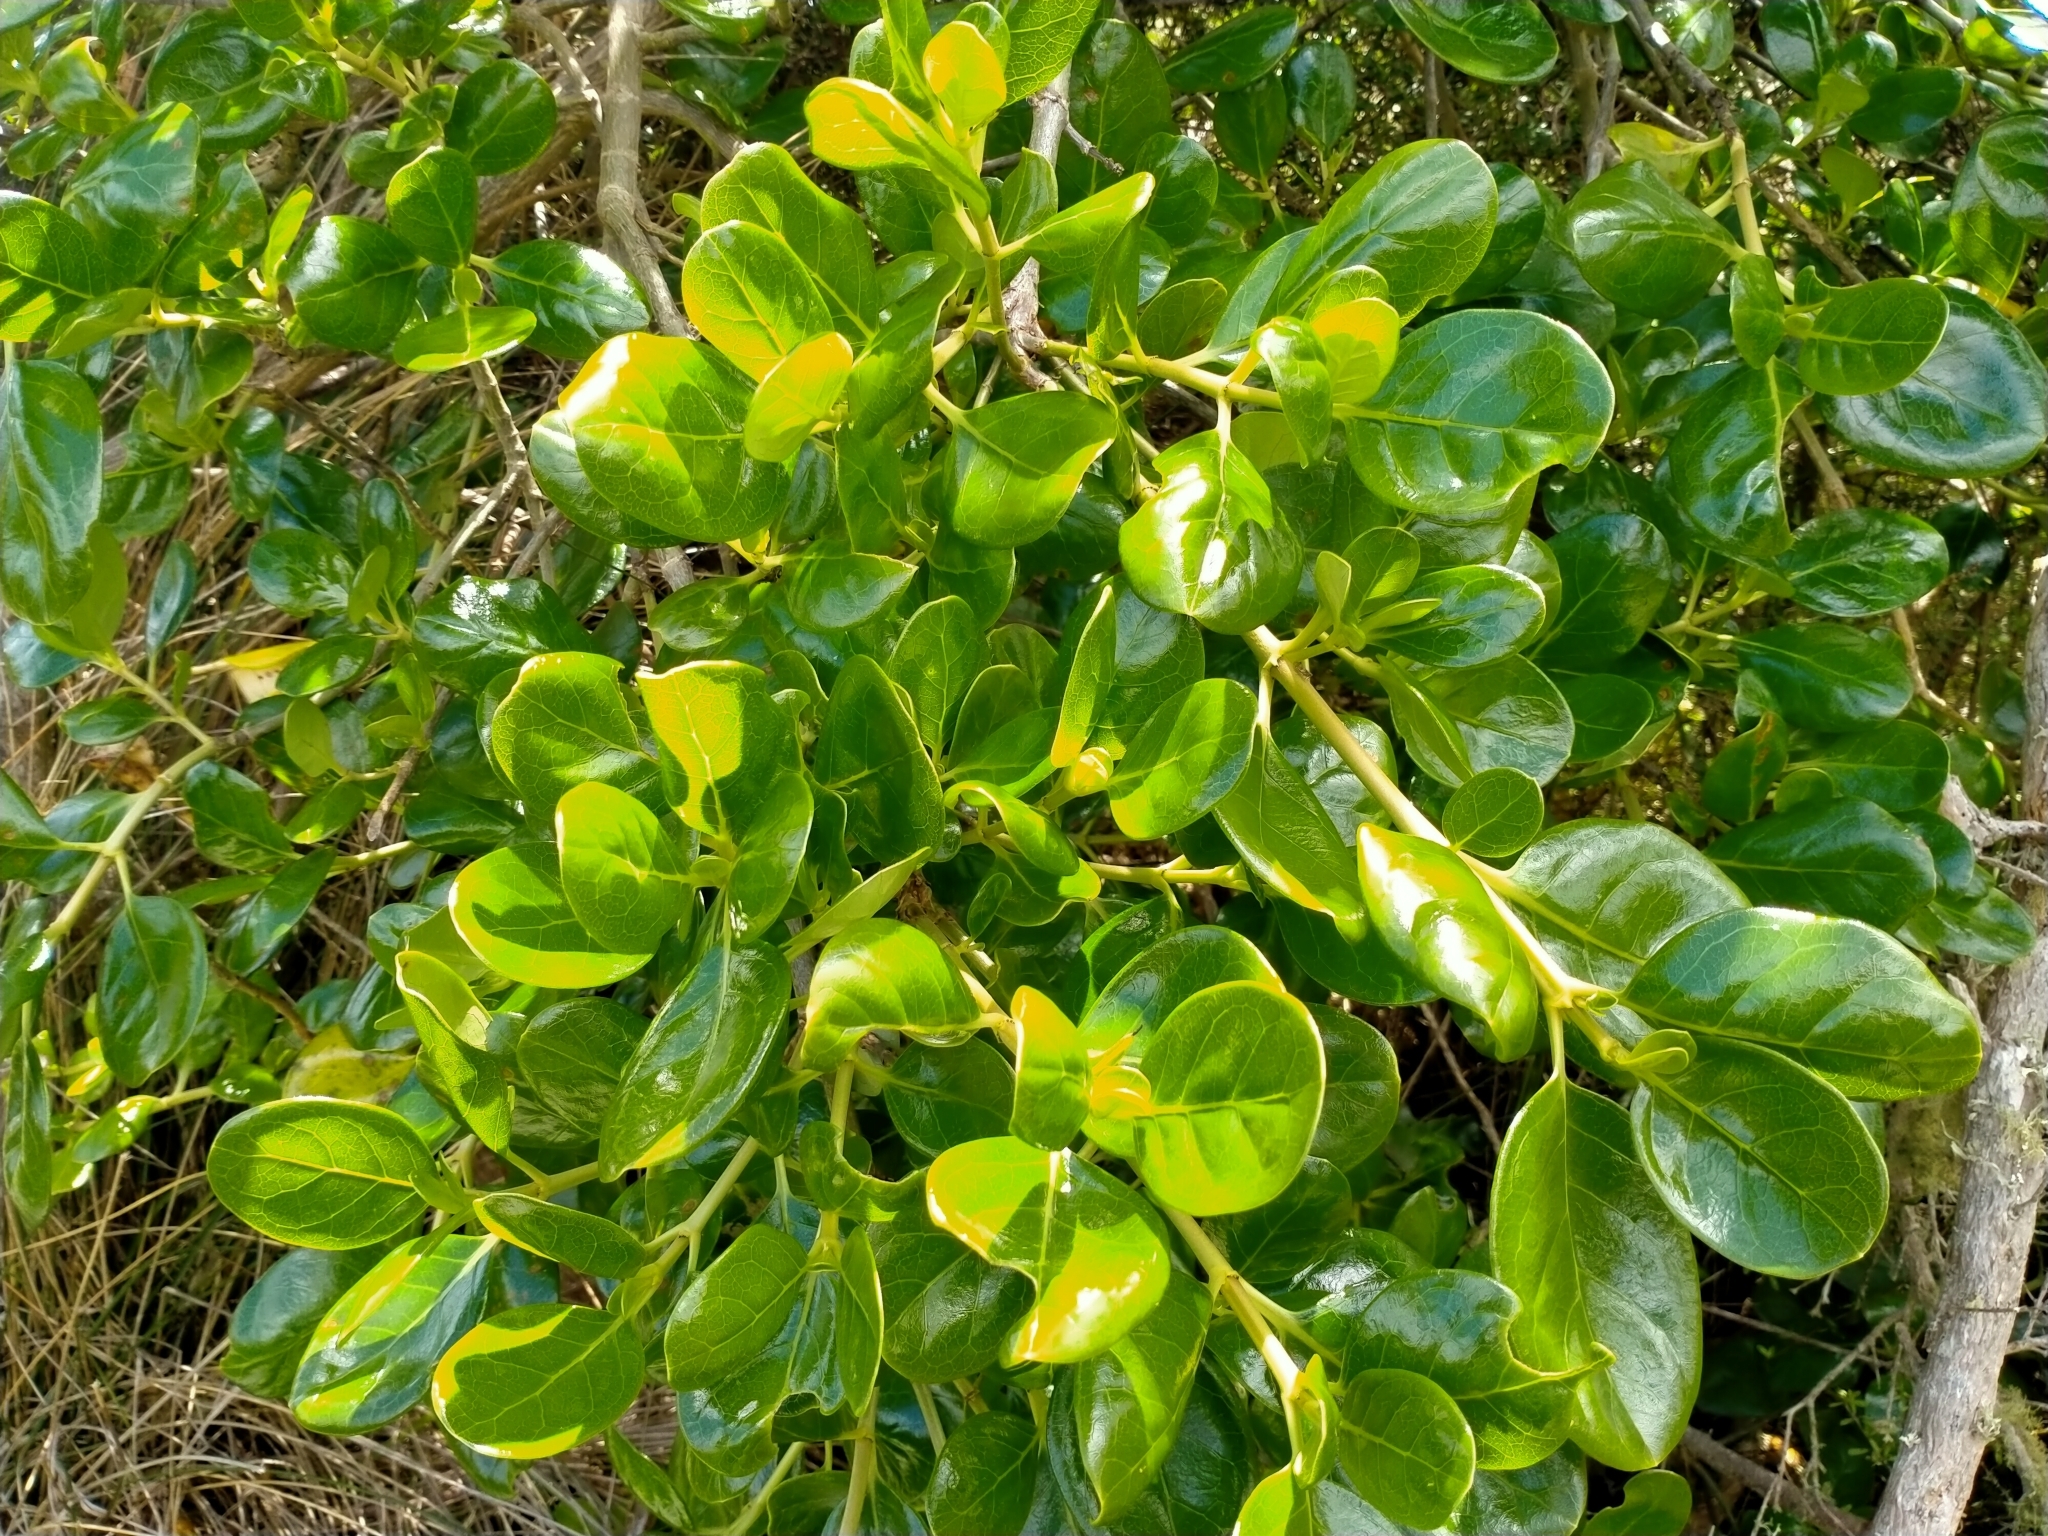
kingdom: Plantae
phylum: Tracheophyta
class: Magnoliopsida
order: Gentianales
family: Rubiaceae
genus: Coprosma
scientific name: Coprosma repens
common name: Tree bedstraw
